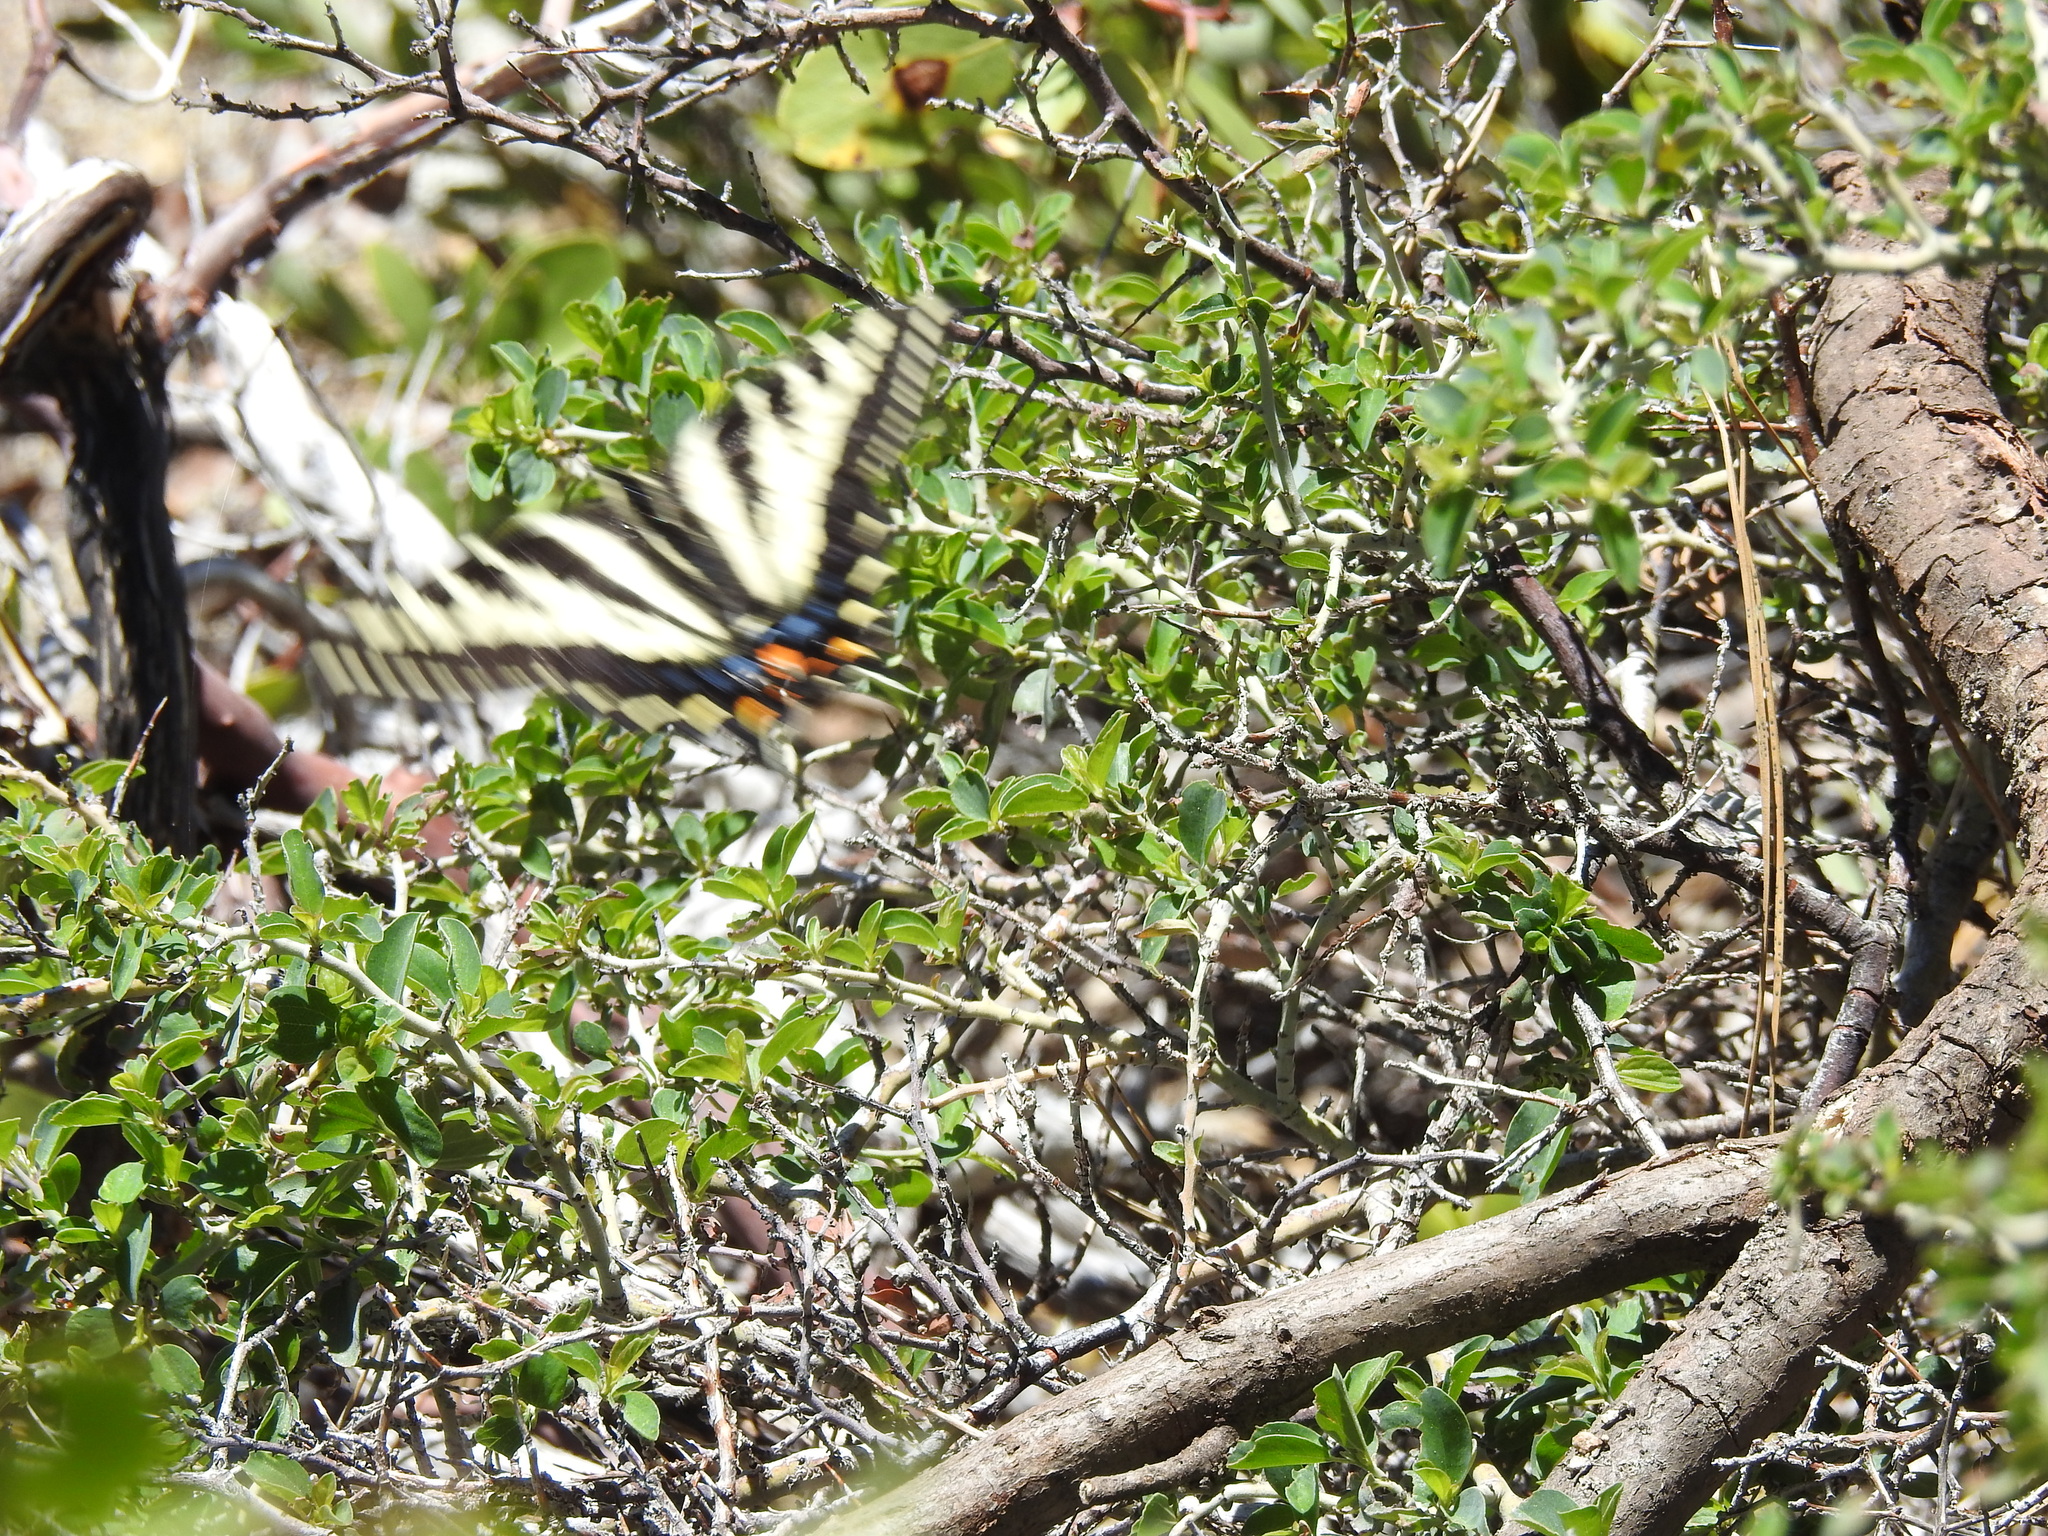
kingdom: Animalia
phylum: Arthropoda
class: Insecta
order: Lepidoptera
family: Papilionidae
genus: Papilio
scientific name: Papilio eurymedon
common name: Pale tiger swallowtail
